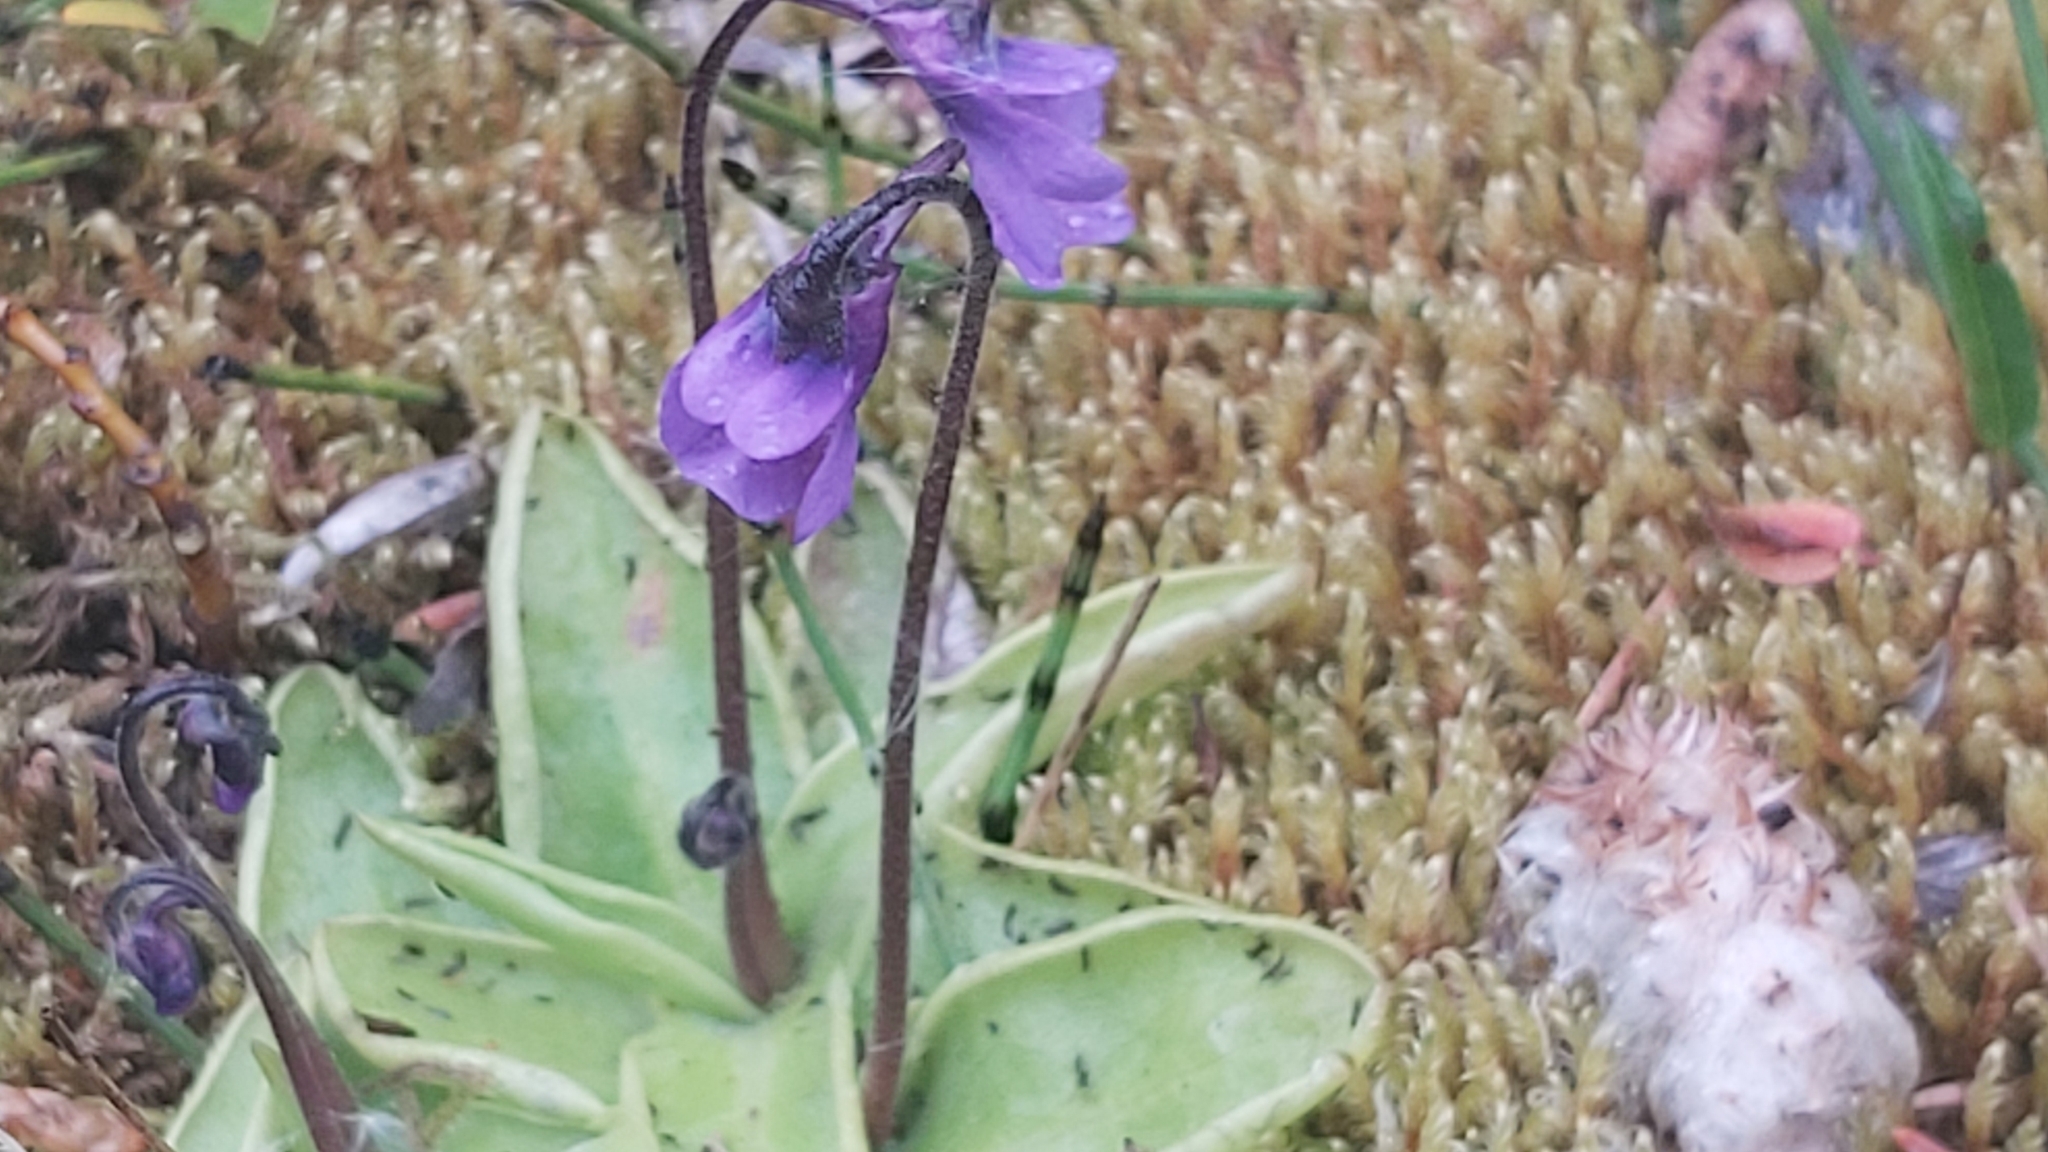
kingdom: Plantae
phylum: Tracheophyta
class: Magnoliopsida
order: Lamiales
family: Lentibulariaceae
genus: Pinguicula
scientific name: Pinguicula vulgaris
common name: Common butterwort
